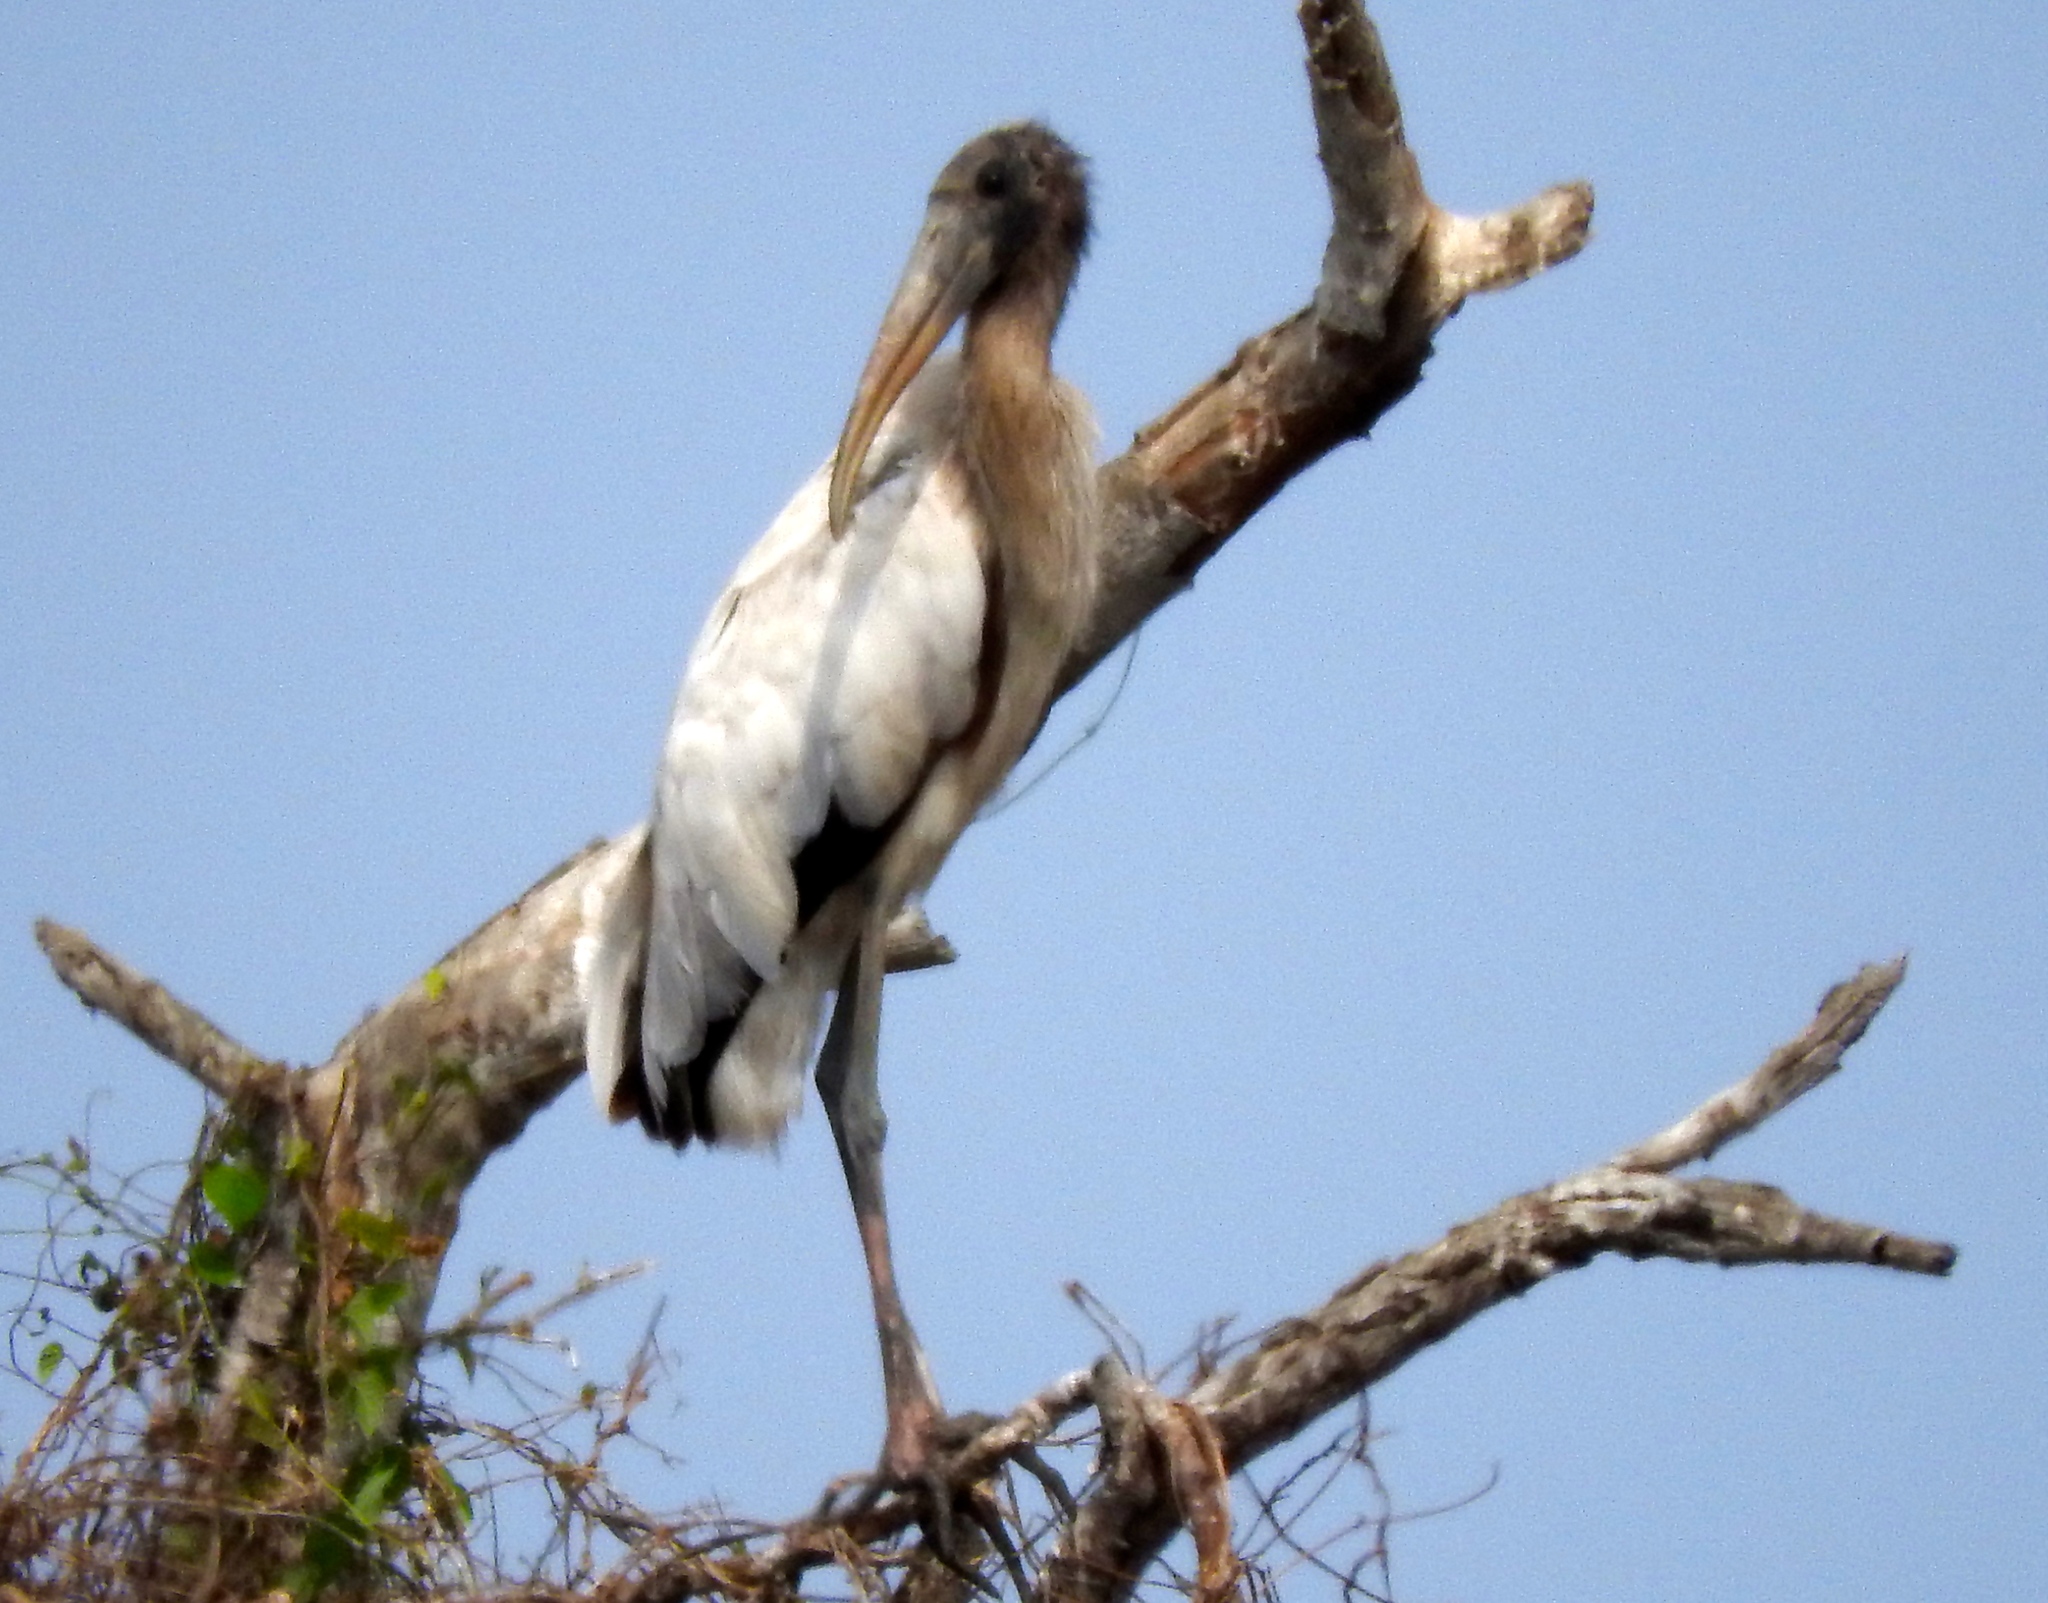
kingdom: Animalia
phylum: Chordata
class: Aves
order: Ciconiiformes
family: Ciconiidae
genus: Mycteria
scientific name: Mycteria americana
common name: Wood stork
